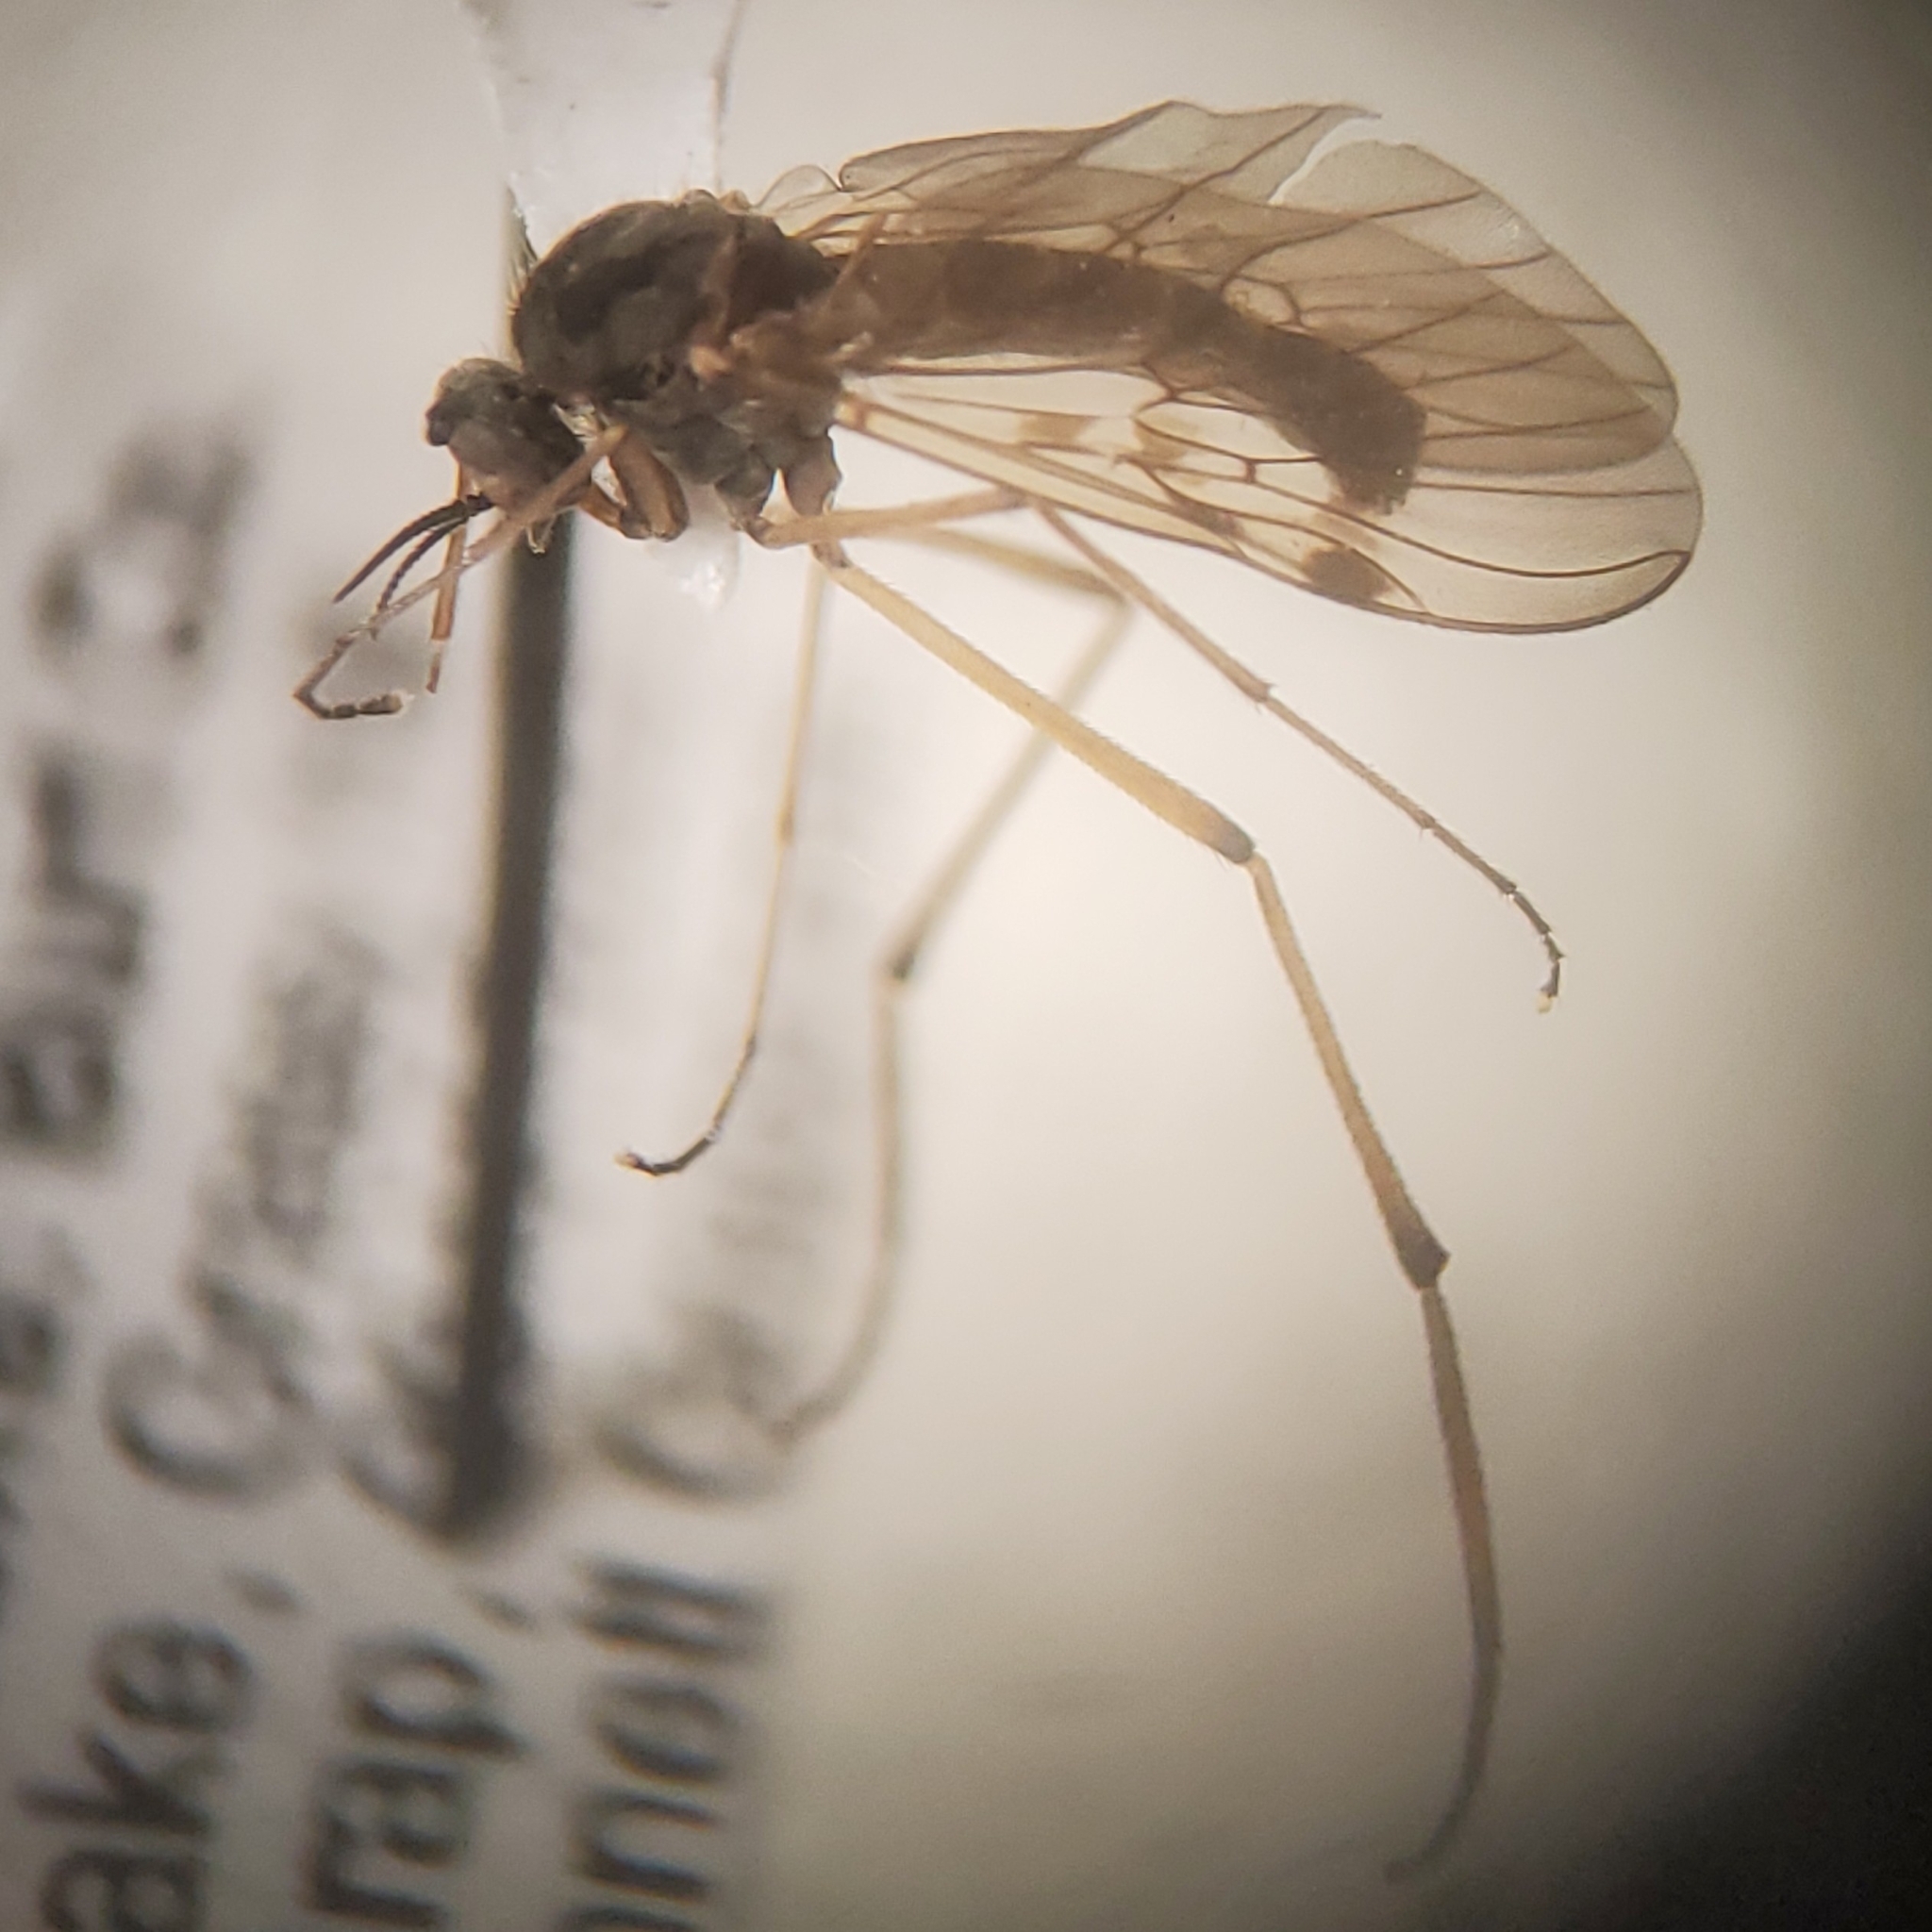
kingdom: Animalia
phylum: Arthropoda
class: Insecta
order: Diptera
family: Anisopodidae
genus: Sylvicola
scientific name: Sylvicola notialis
